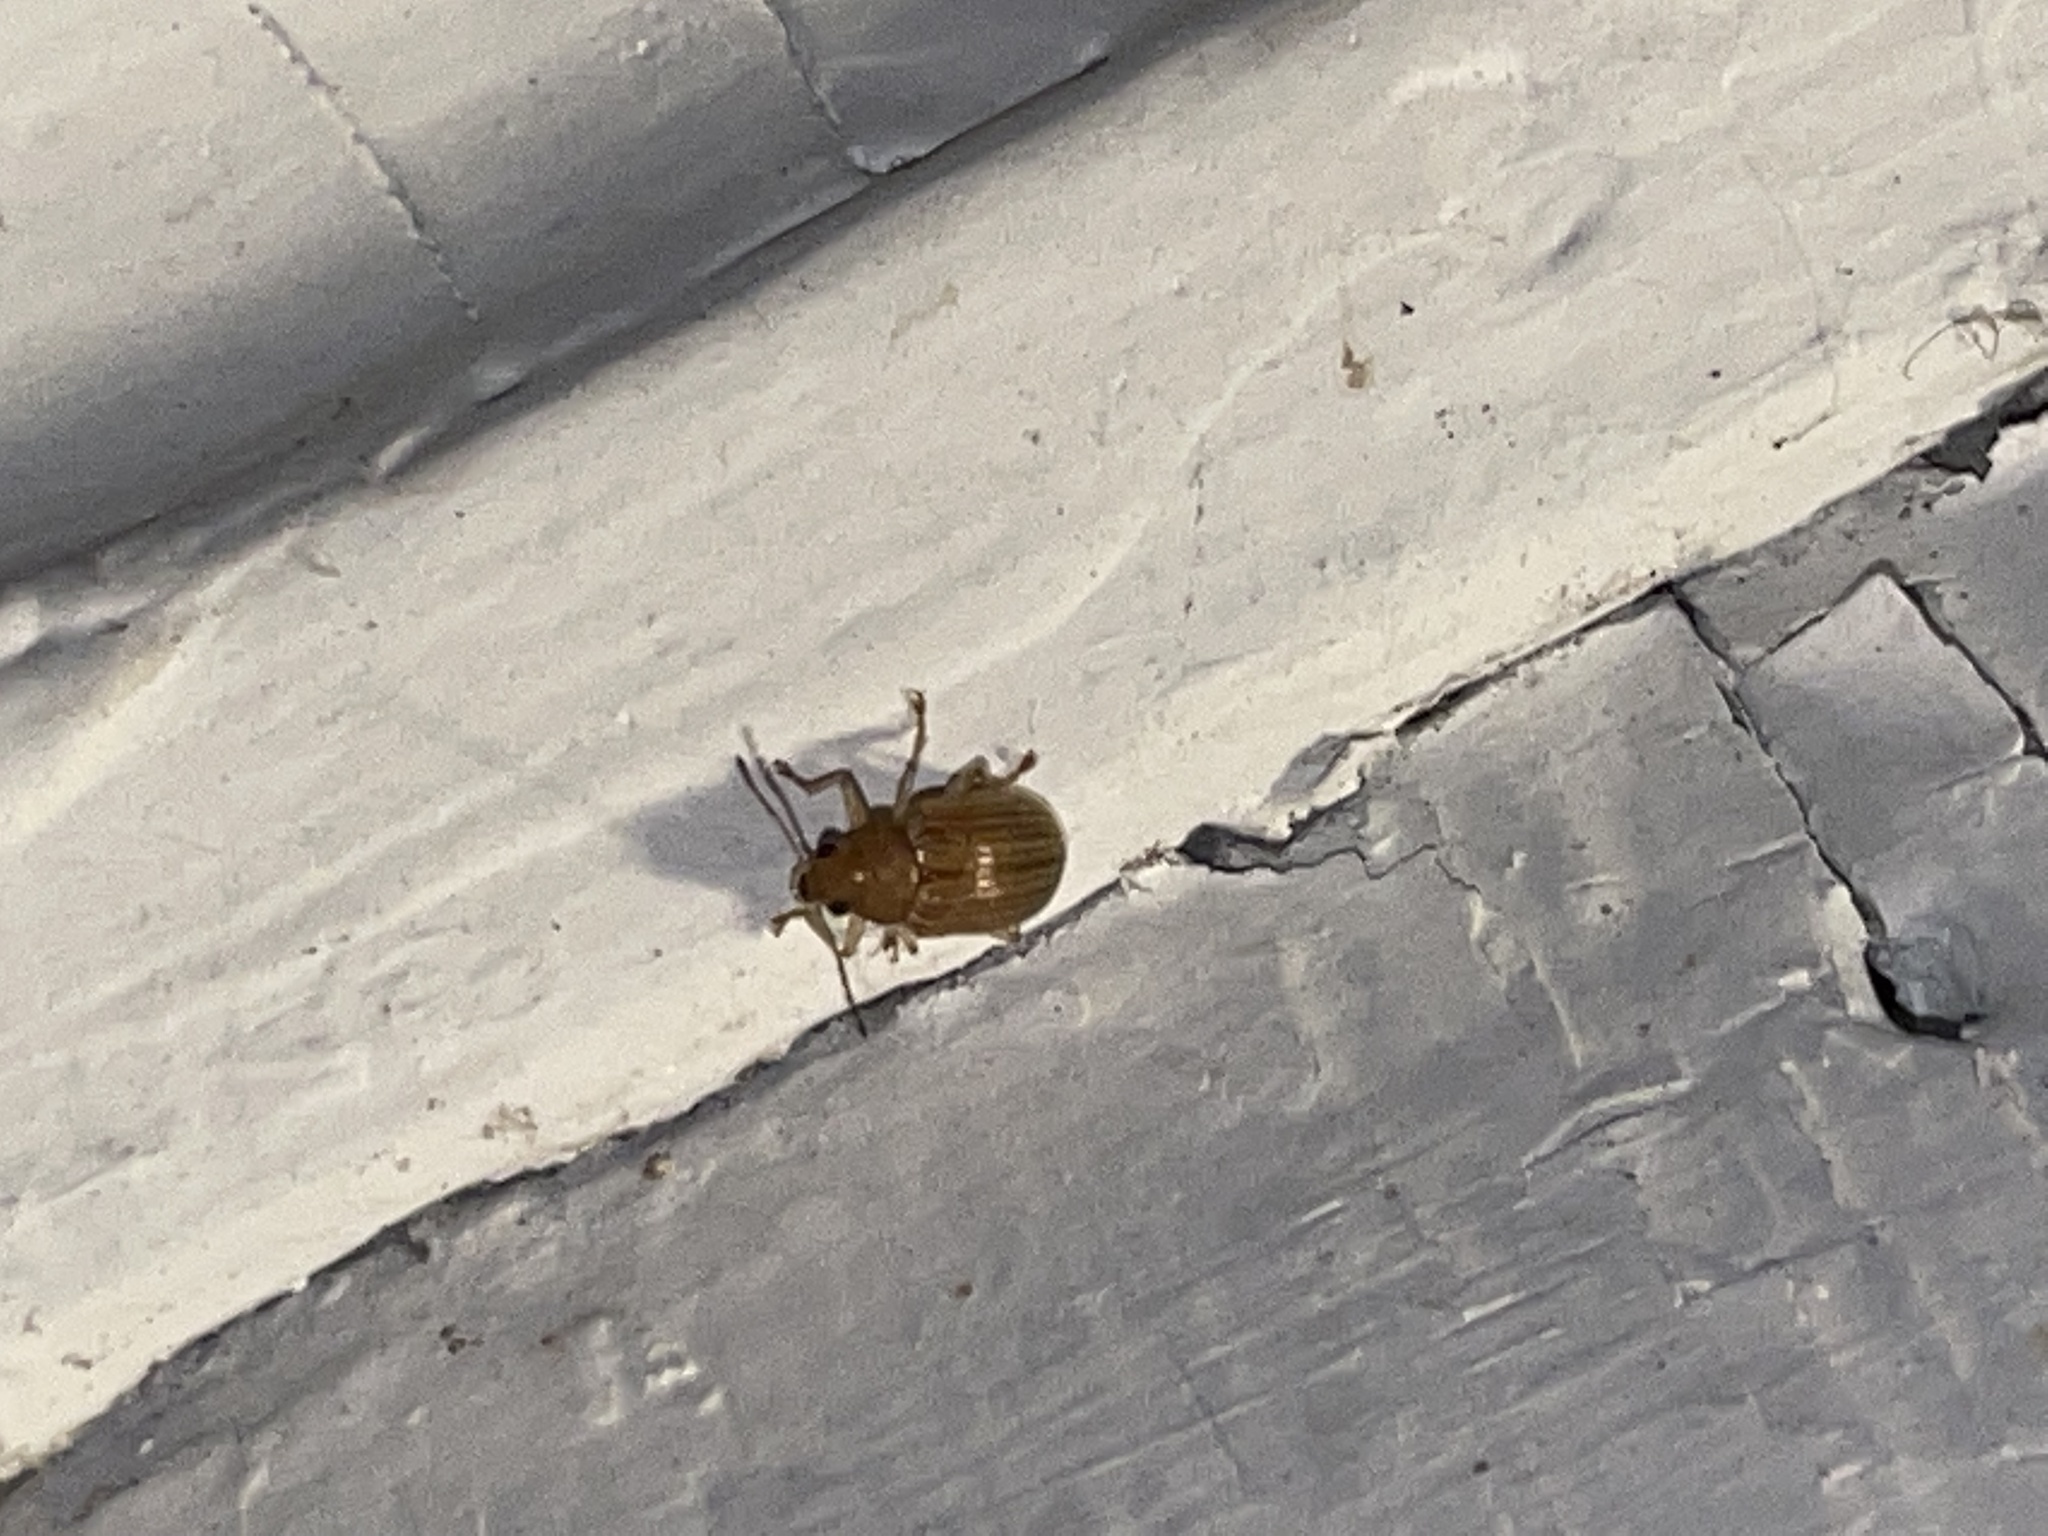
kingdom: Animalia
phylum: Arthropoda
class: Insecta
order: Coleoptera
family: Chrysomelidae
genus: Colaspis
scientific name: Colaspis brunnea
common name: Grape colaspis
